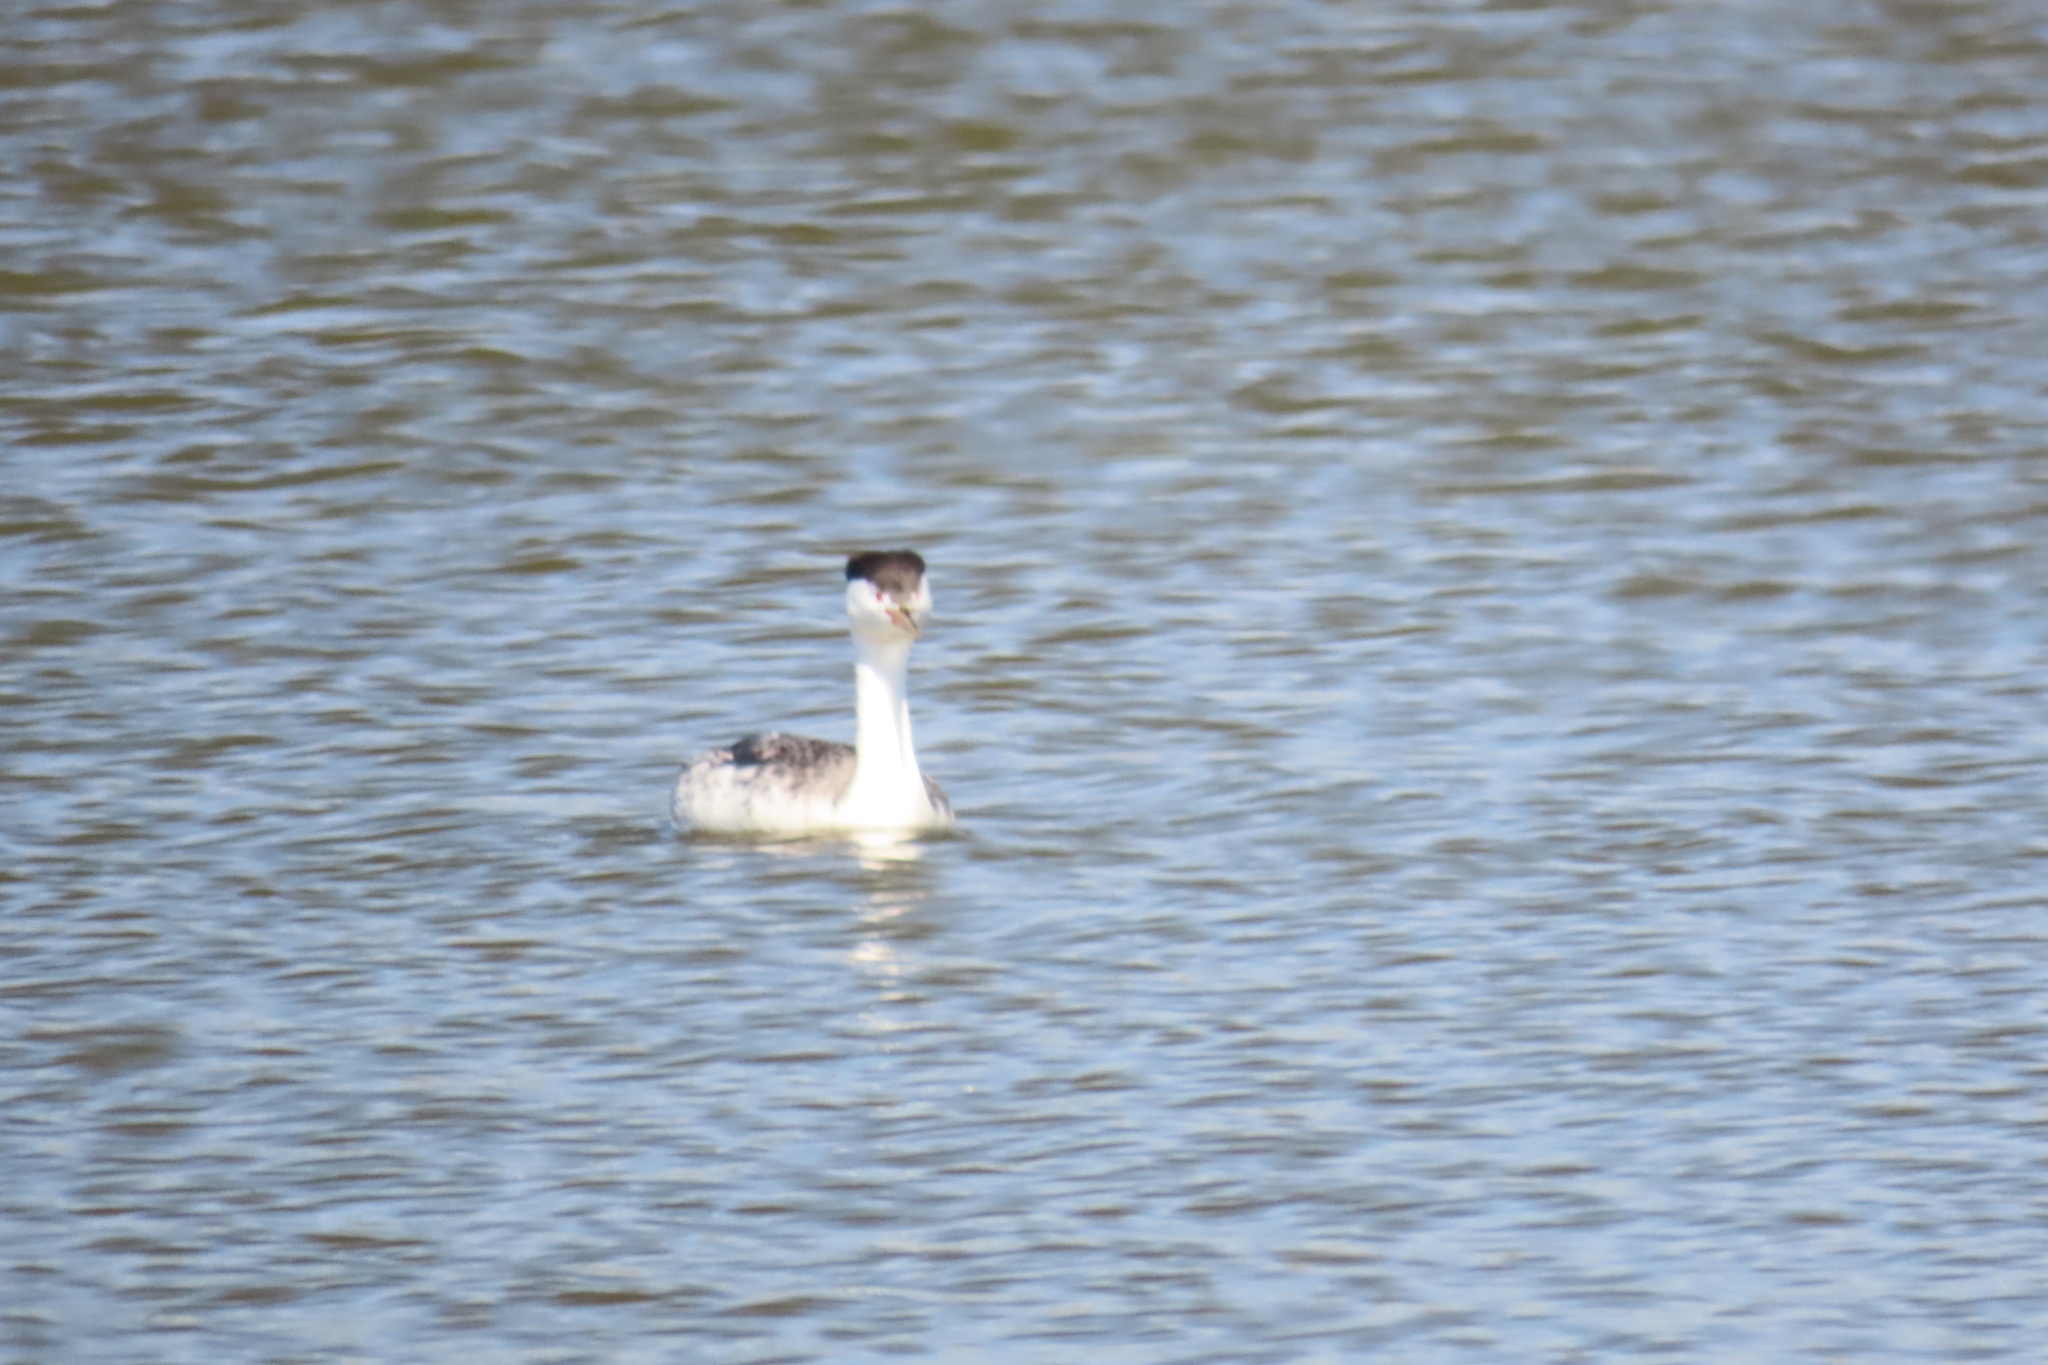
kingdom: Animalia
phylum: Chordata
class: Aves
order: Podicipediformes
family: Podicipedidae
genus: Aechmophorus
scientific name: Aechmophorus clarkii
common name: Clark's grebe
